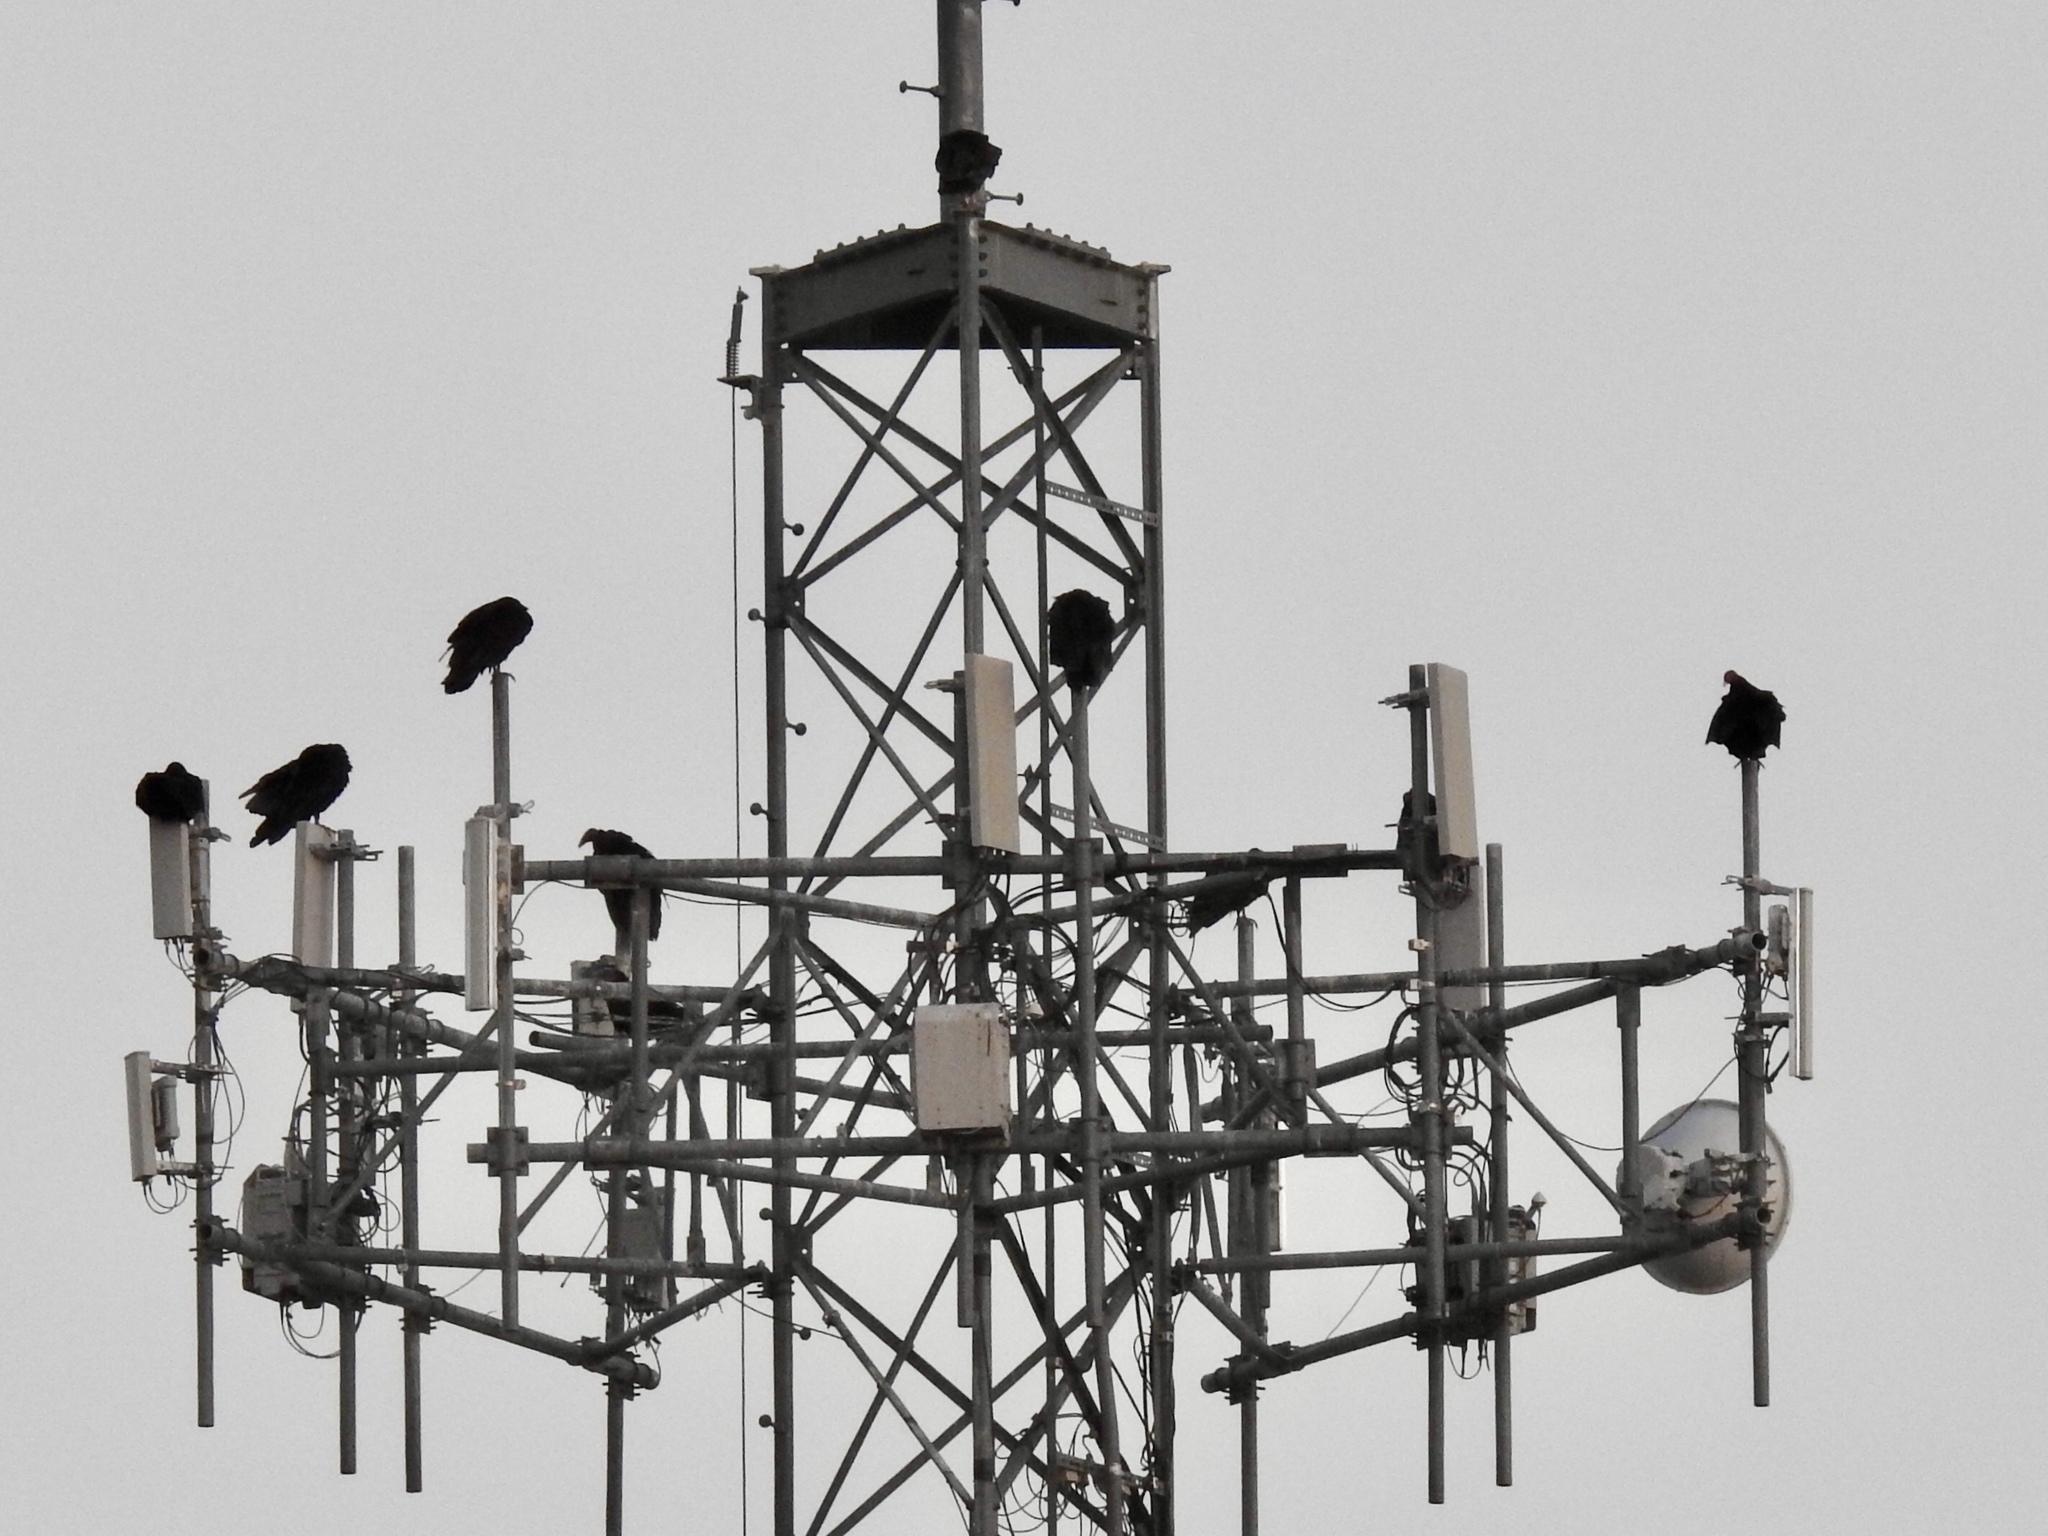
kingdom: Animalia
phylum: Chordata
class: Aves
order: Accipitriformes
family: Cathartidae
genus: Cathartes
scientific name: Cathartes aura
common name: Turkey vulture
